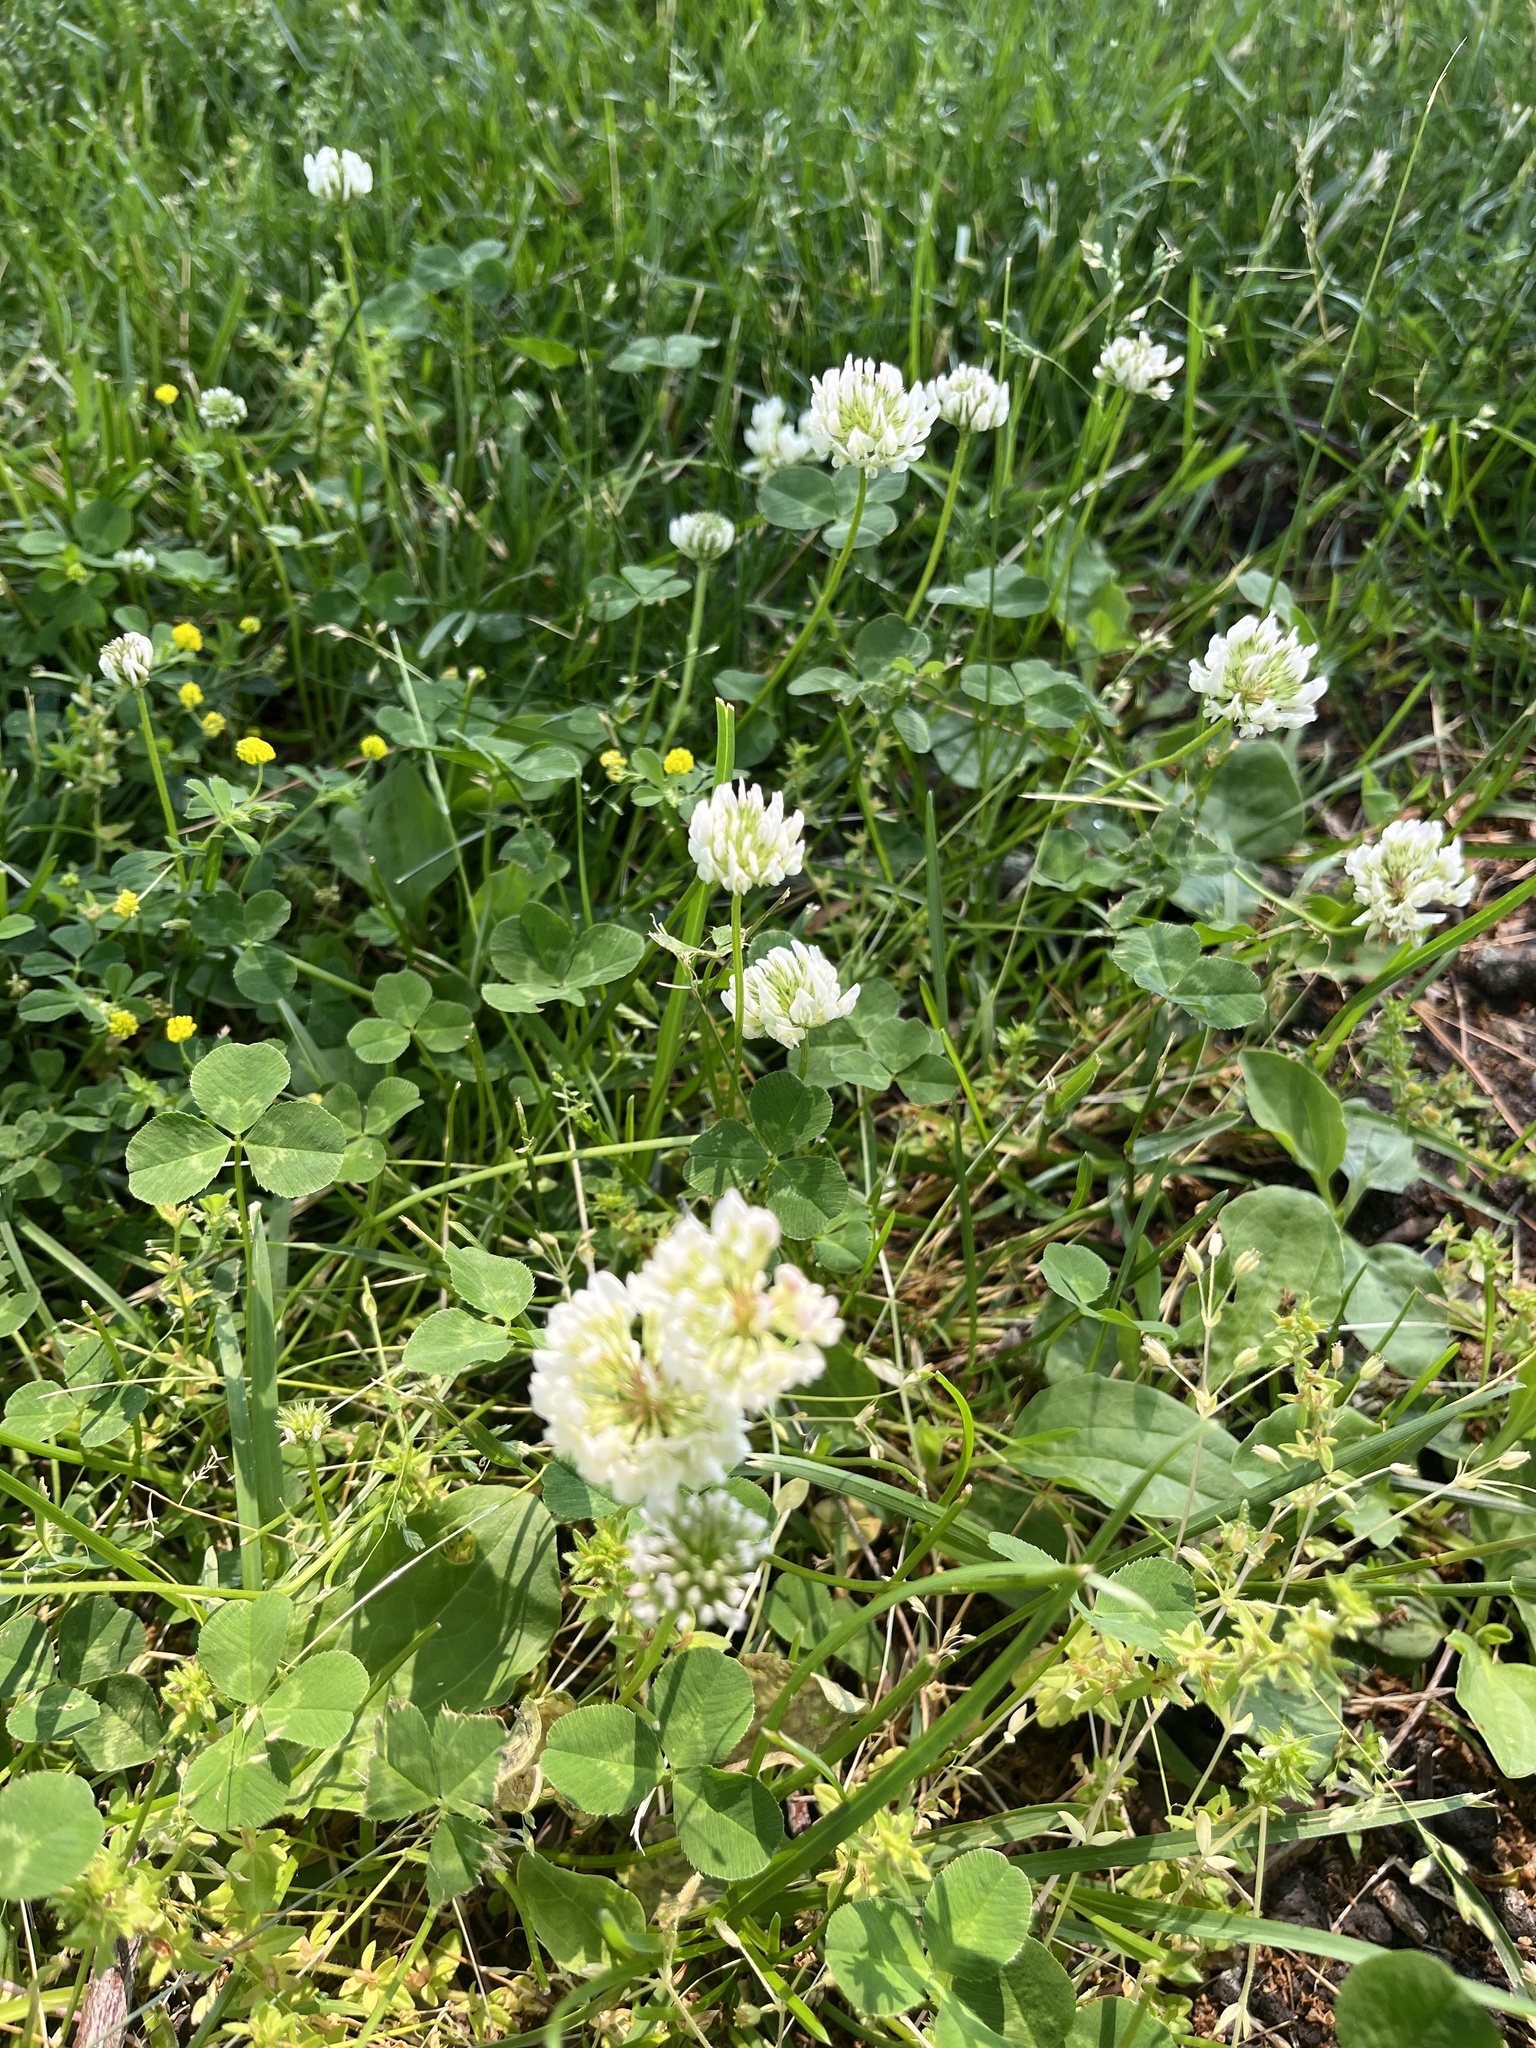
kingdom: Plantae
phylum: Tracheophyta
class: Magnoliopsida
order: Fabales
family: Fabaceae
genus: Trifolium
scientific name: Trifolium repens
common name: White clover
